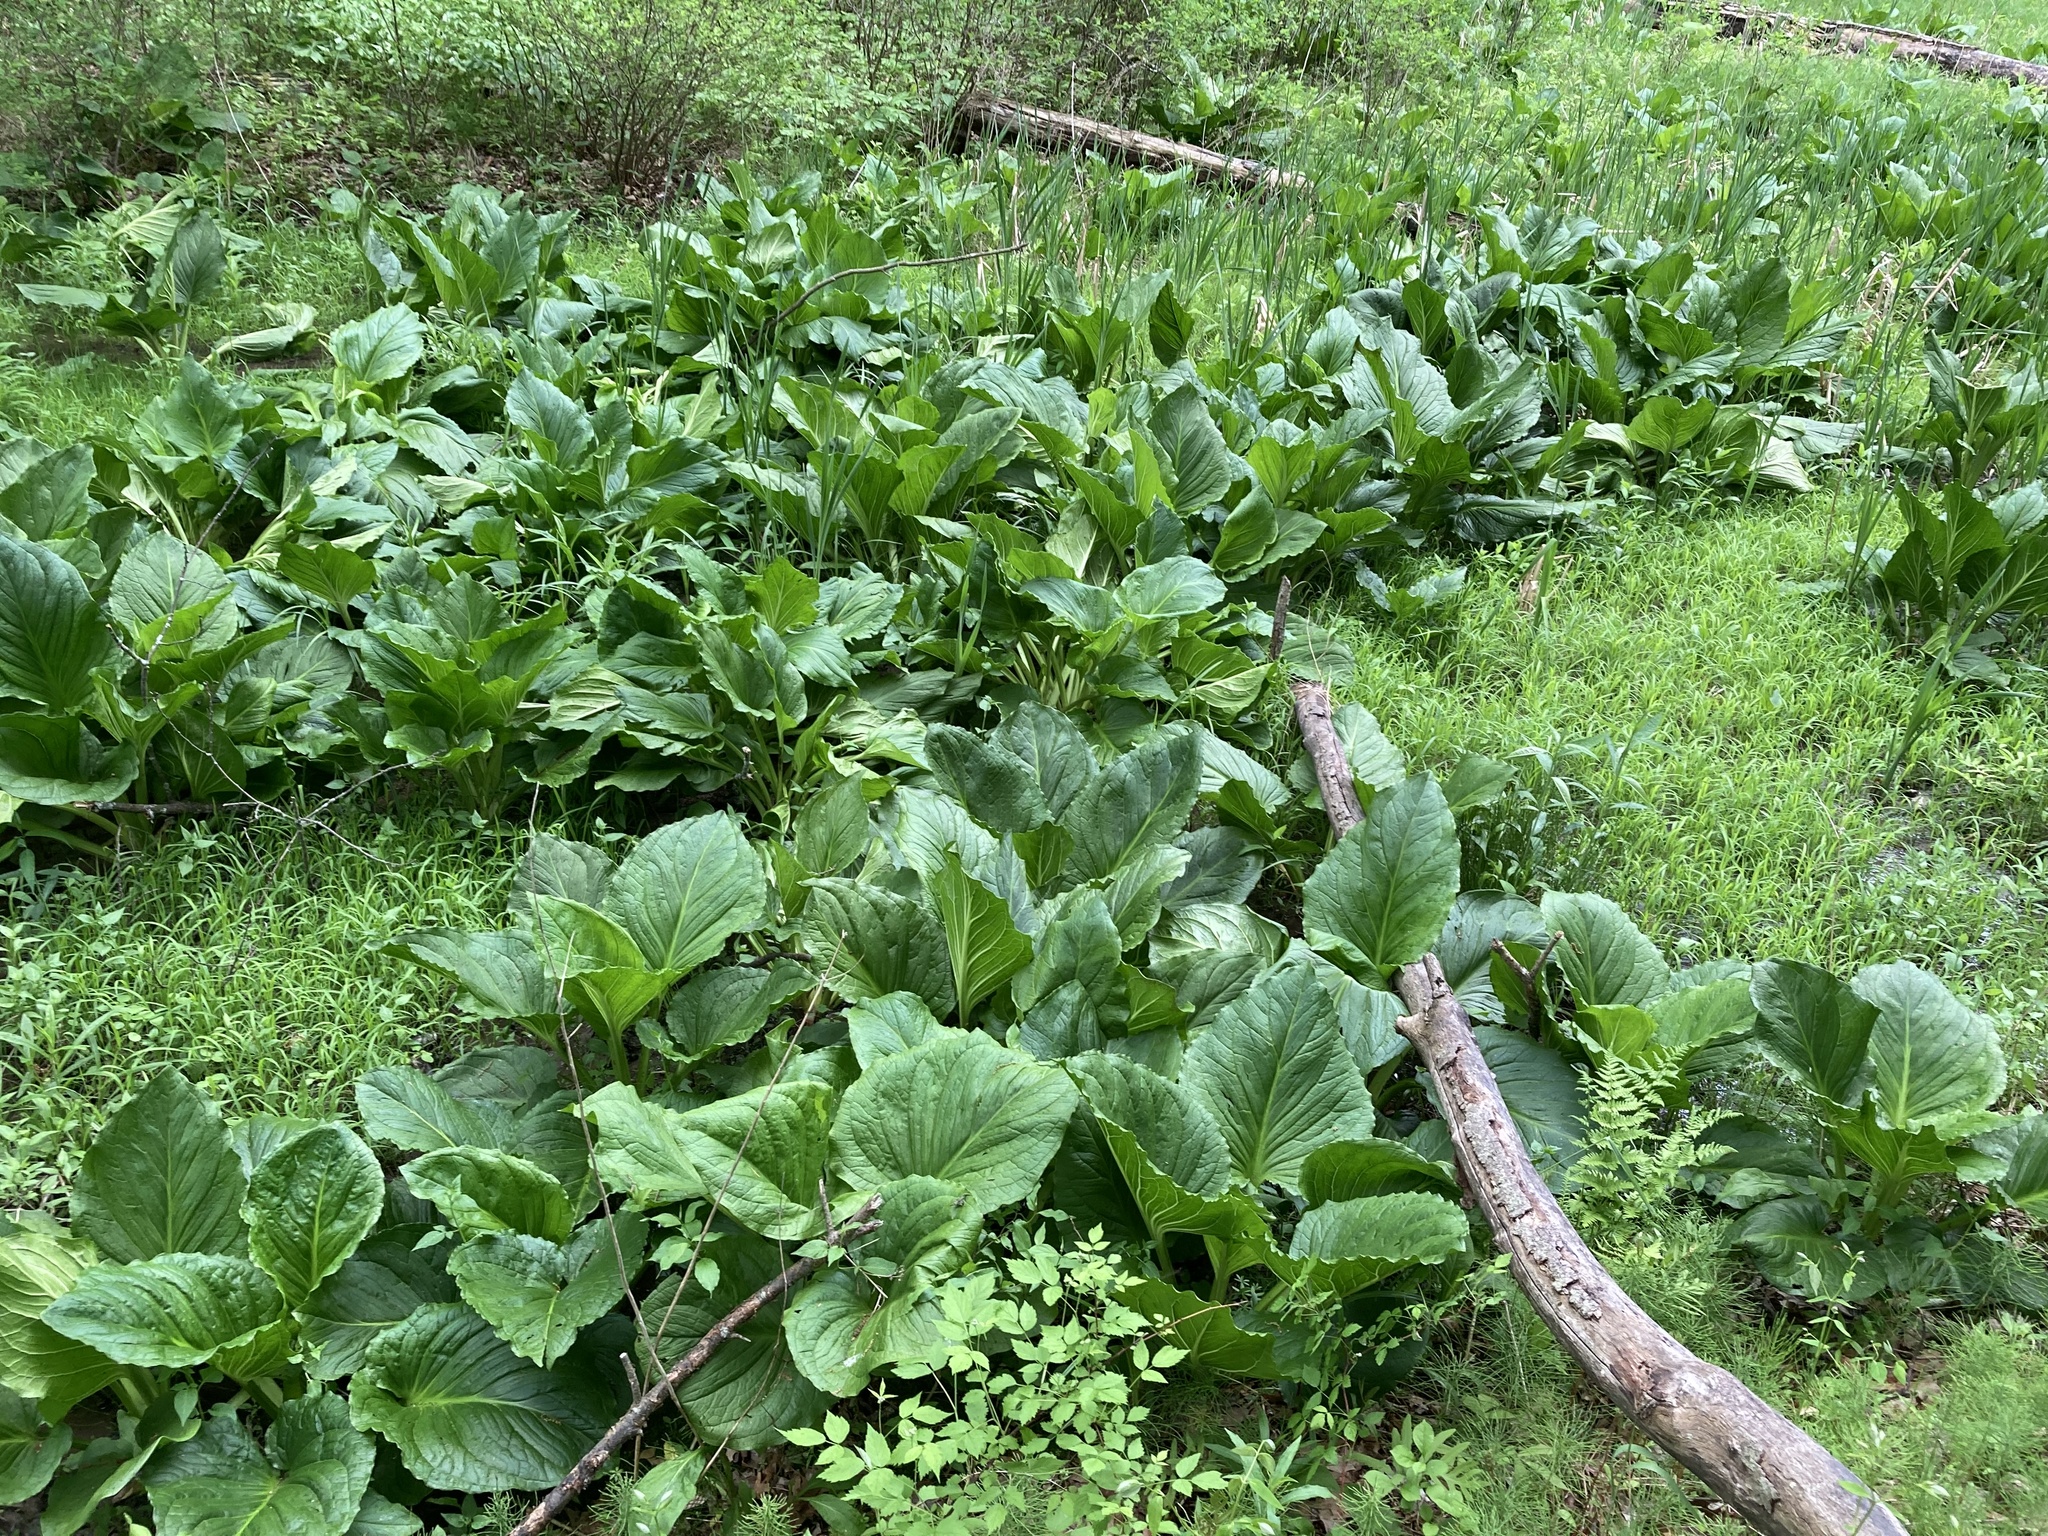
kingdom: Plantae
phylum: Tracheophyta
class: Liliopsida
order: Alismatales
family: Araceae
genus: Symplocarpus
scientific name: Symplocarpus foetidus
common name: Eastern skunk cabbage
